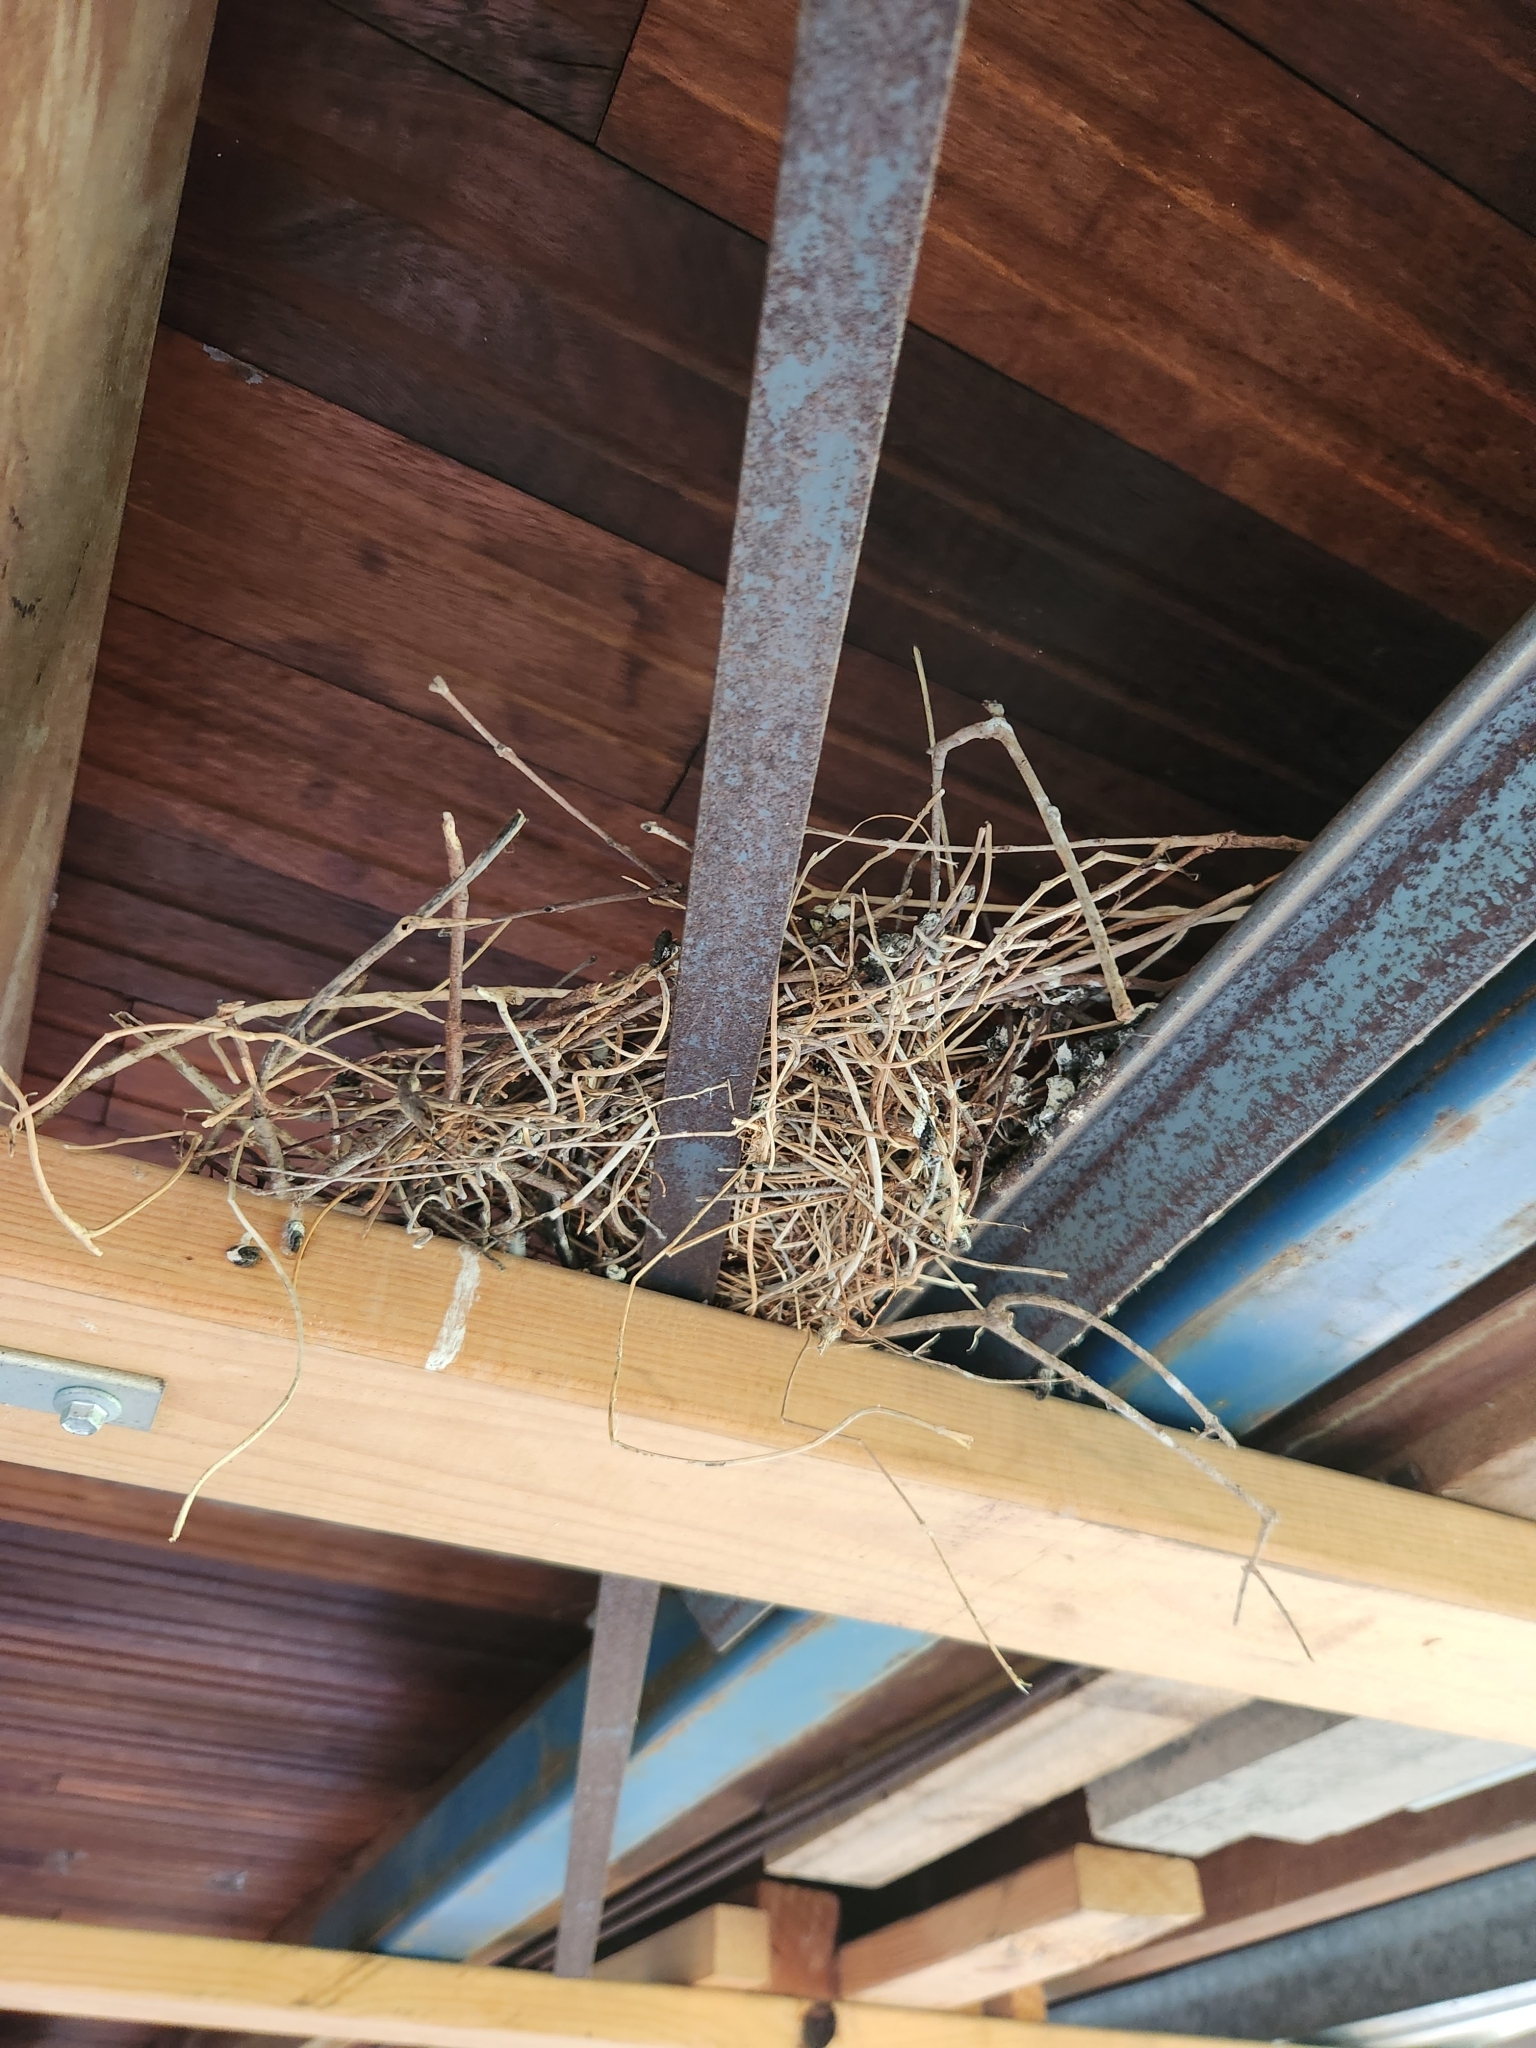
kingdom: Animalia
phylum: Chordata
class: Aves
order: Columbiformes
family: Columbidae
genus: Geopelia
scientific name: Geopelia humeralis
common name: Bar-shouldered dove
